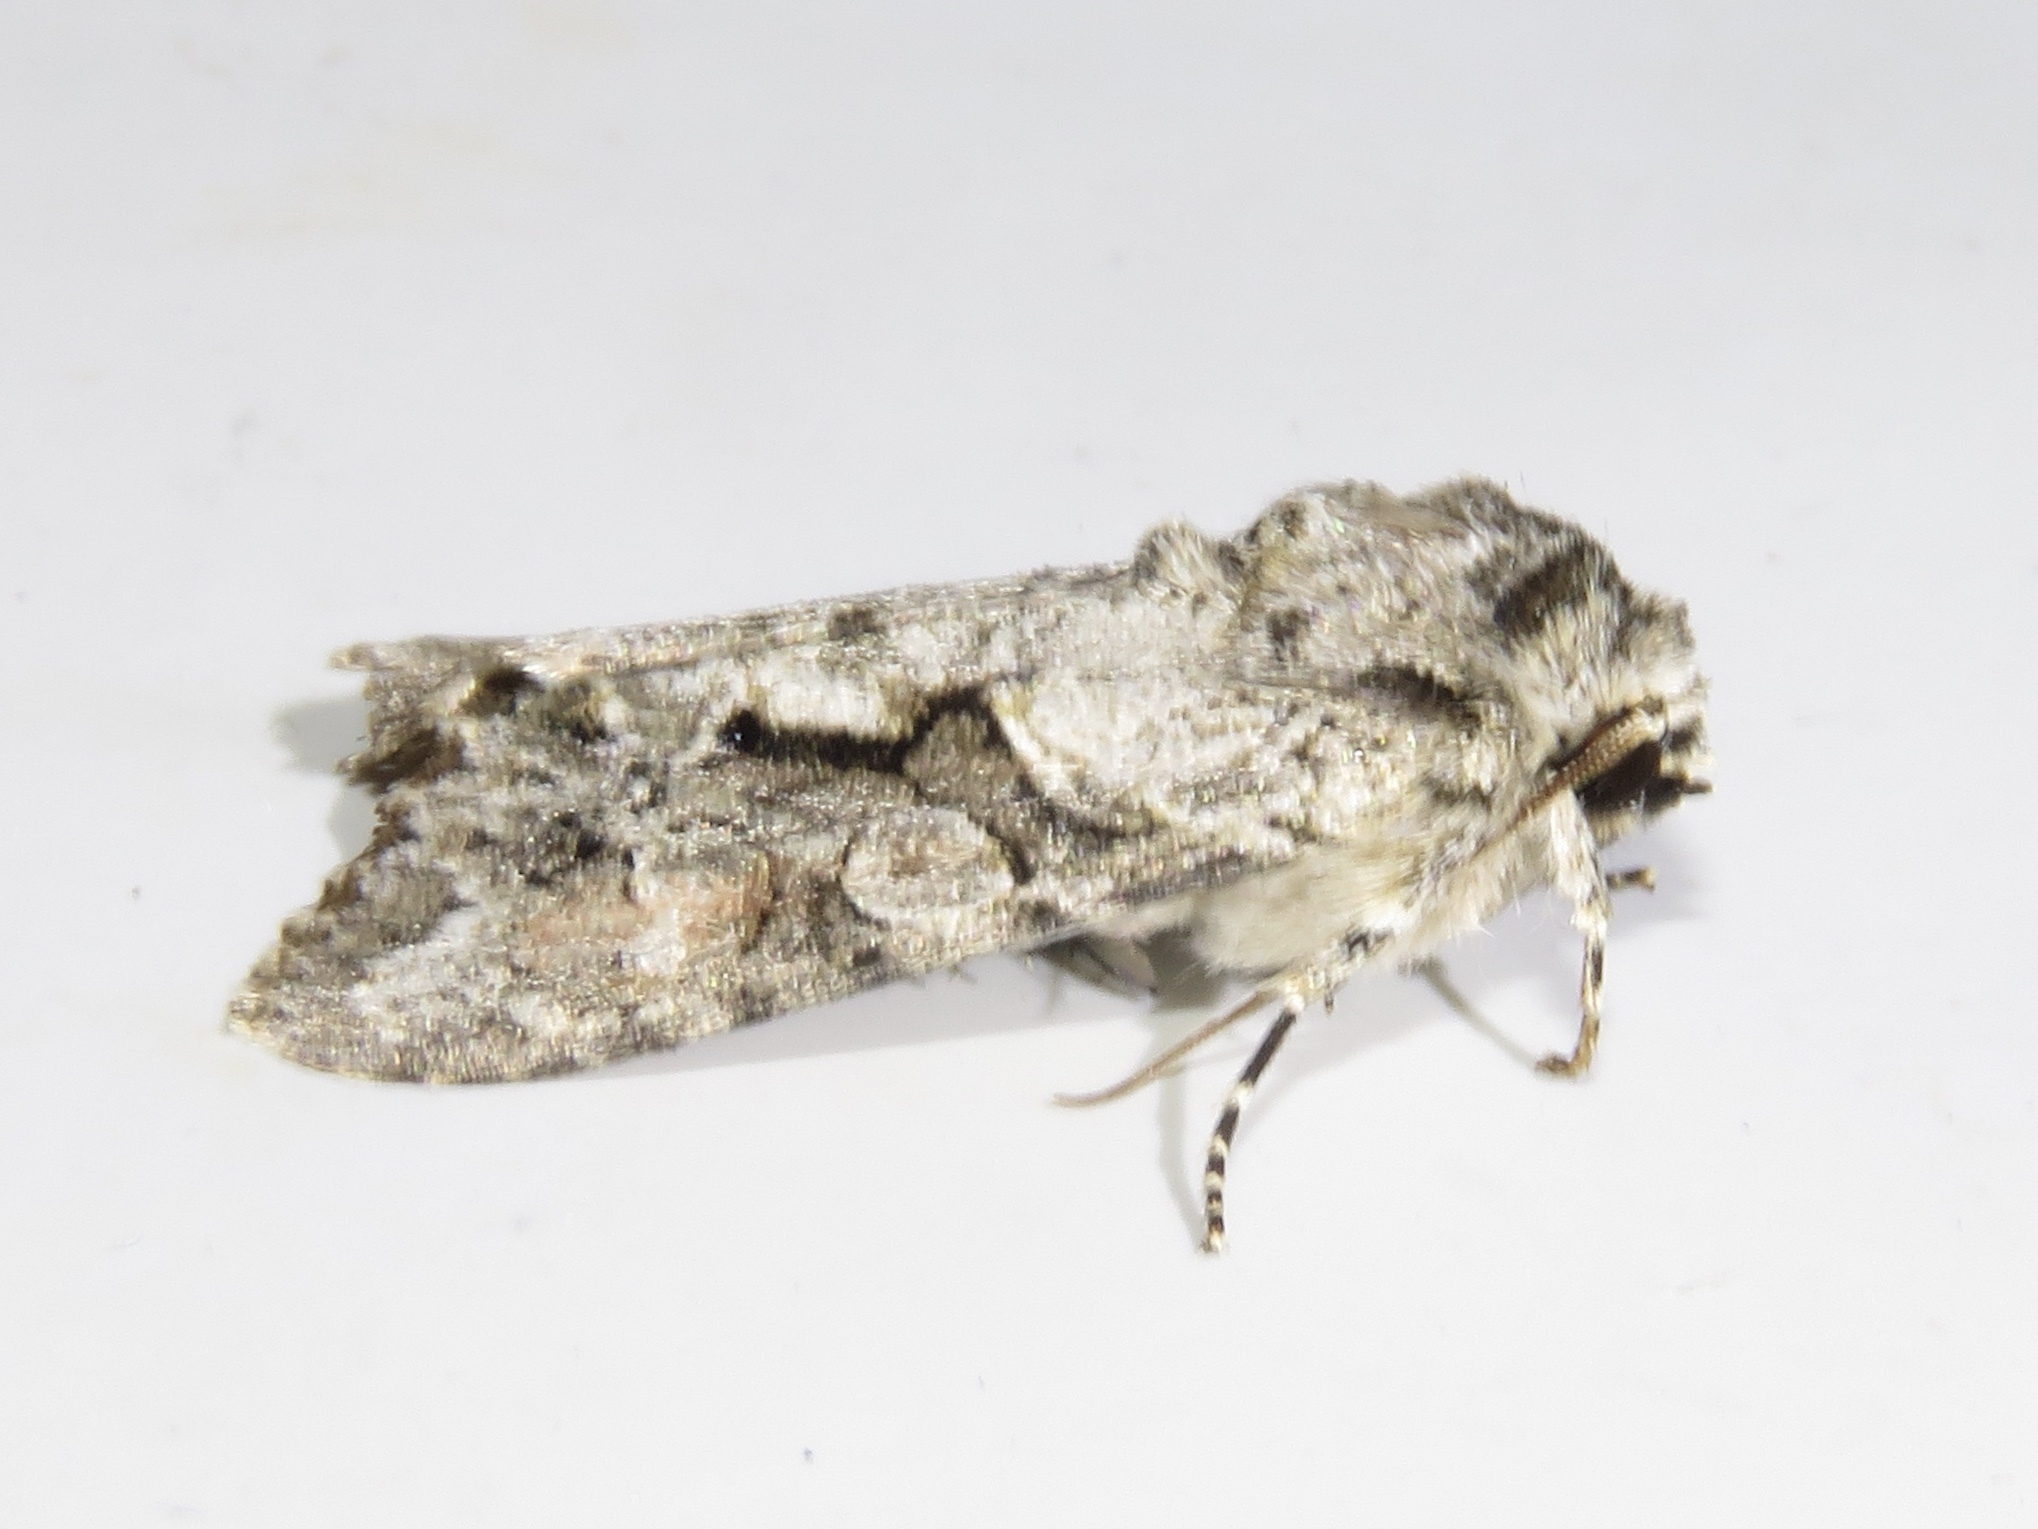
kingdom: Animalia
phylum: Arthropoda
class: Insecta
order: Lepidoptera
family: Noctuidae
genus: Achatia
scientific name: Achatia distincta
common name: Distinct quaker
